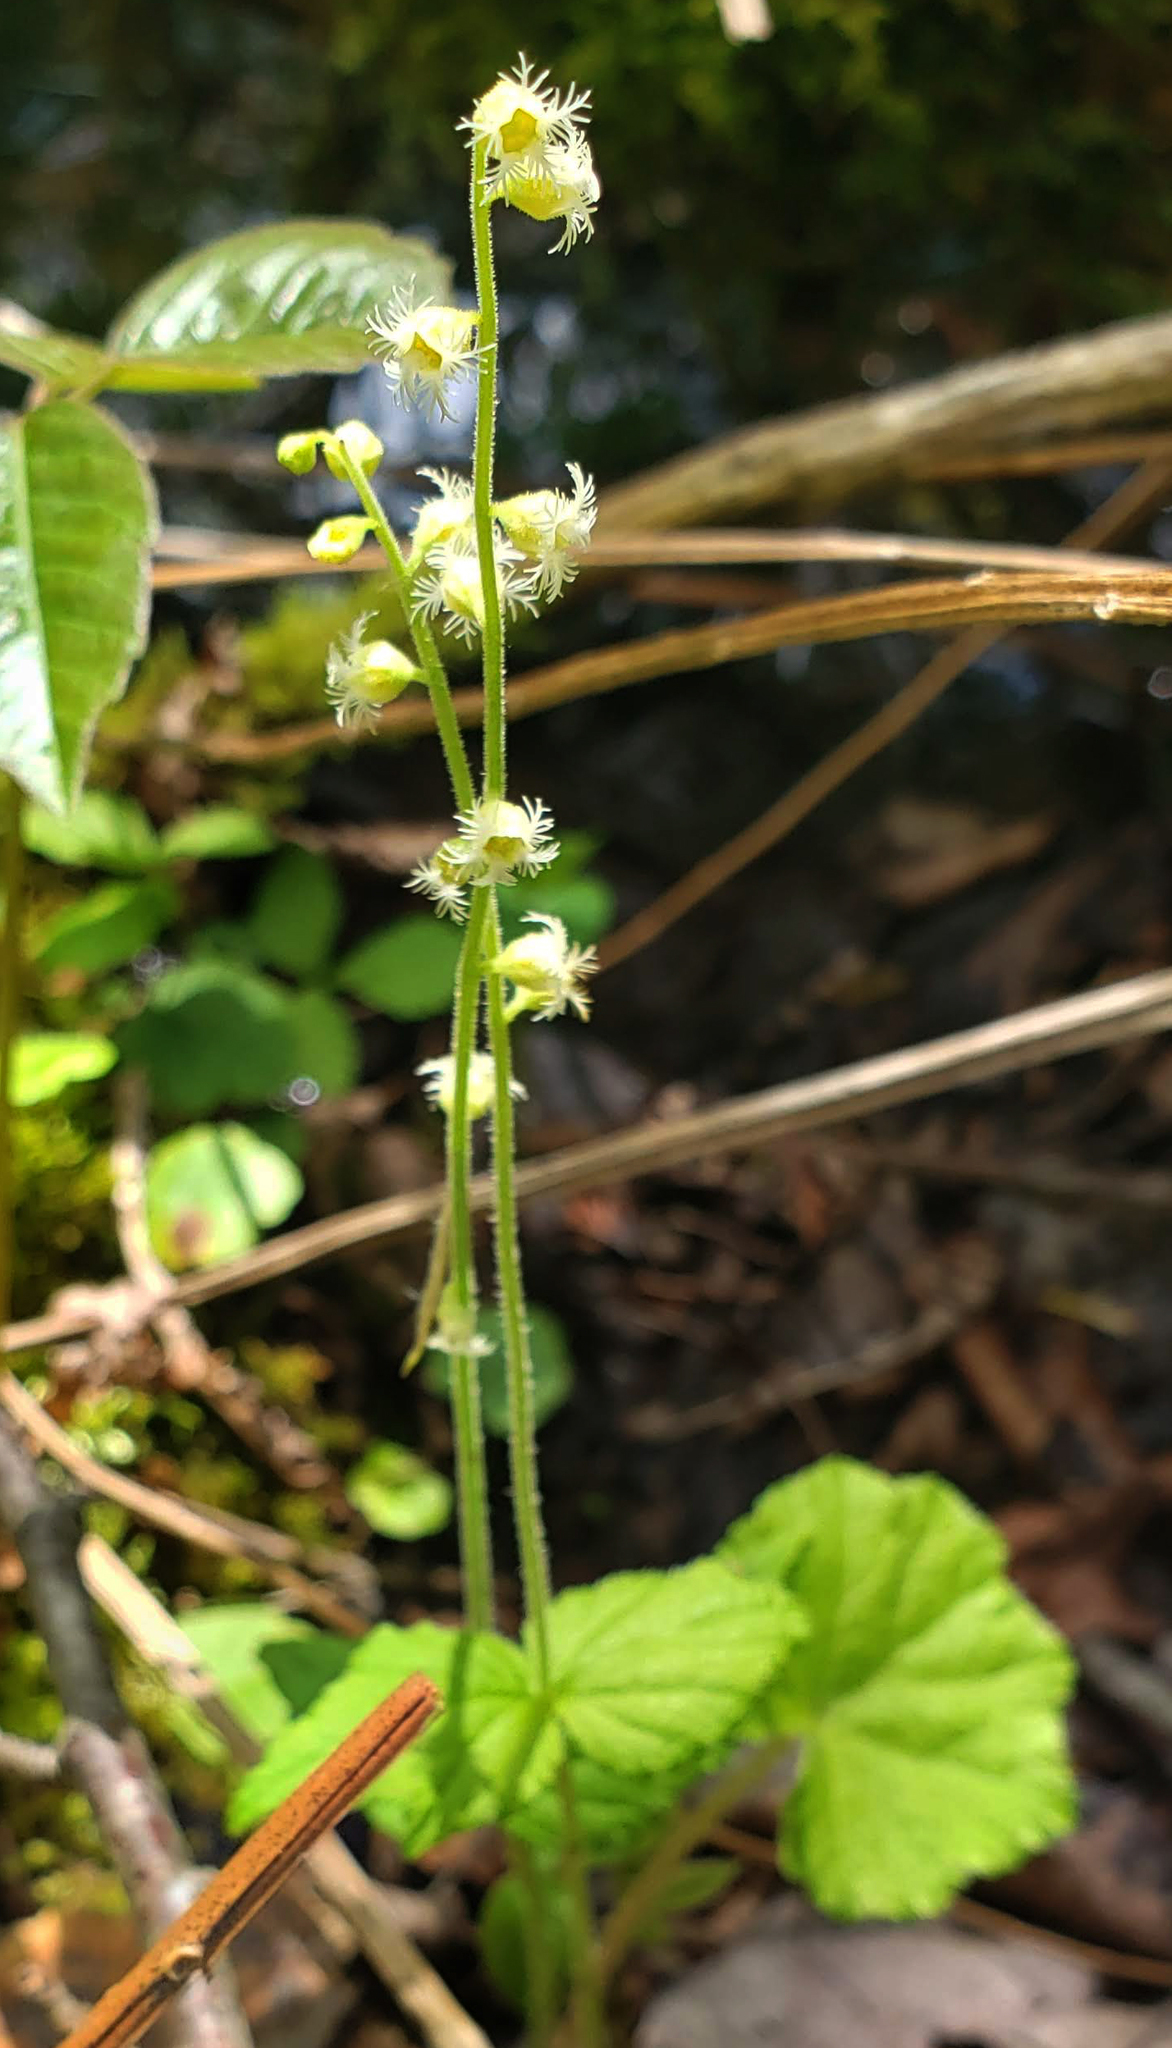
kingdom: Plantae
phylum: Tracheophyta
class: Magnoliopsida
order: Saxifragales
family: Saxifragaceae
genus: Mitella
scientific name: Mitella diphylla
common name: Coolwort
